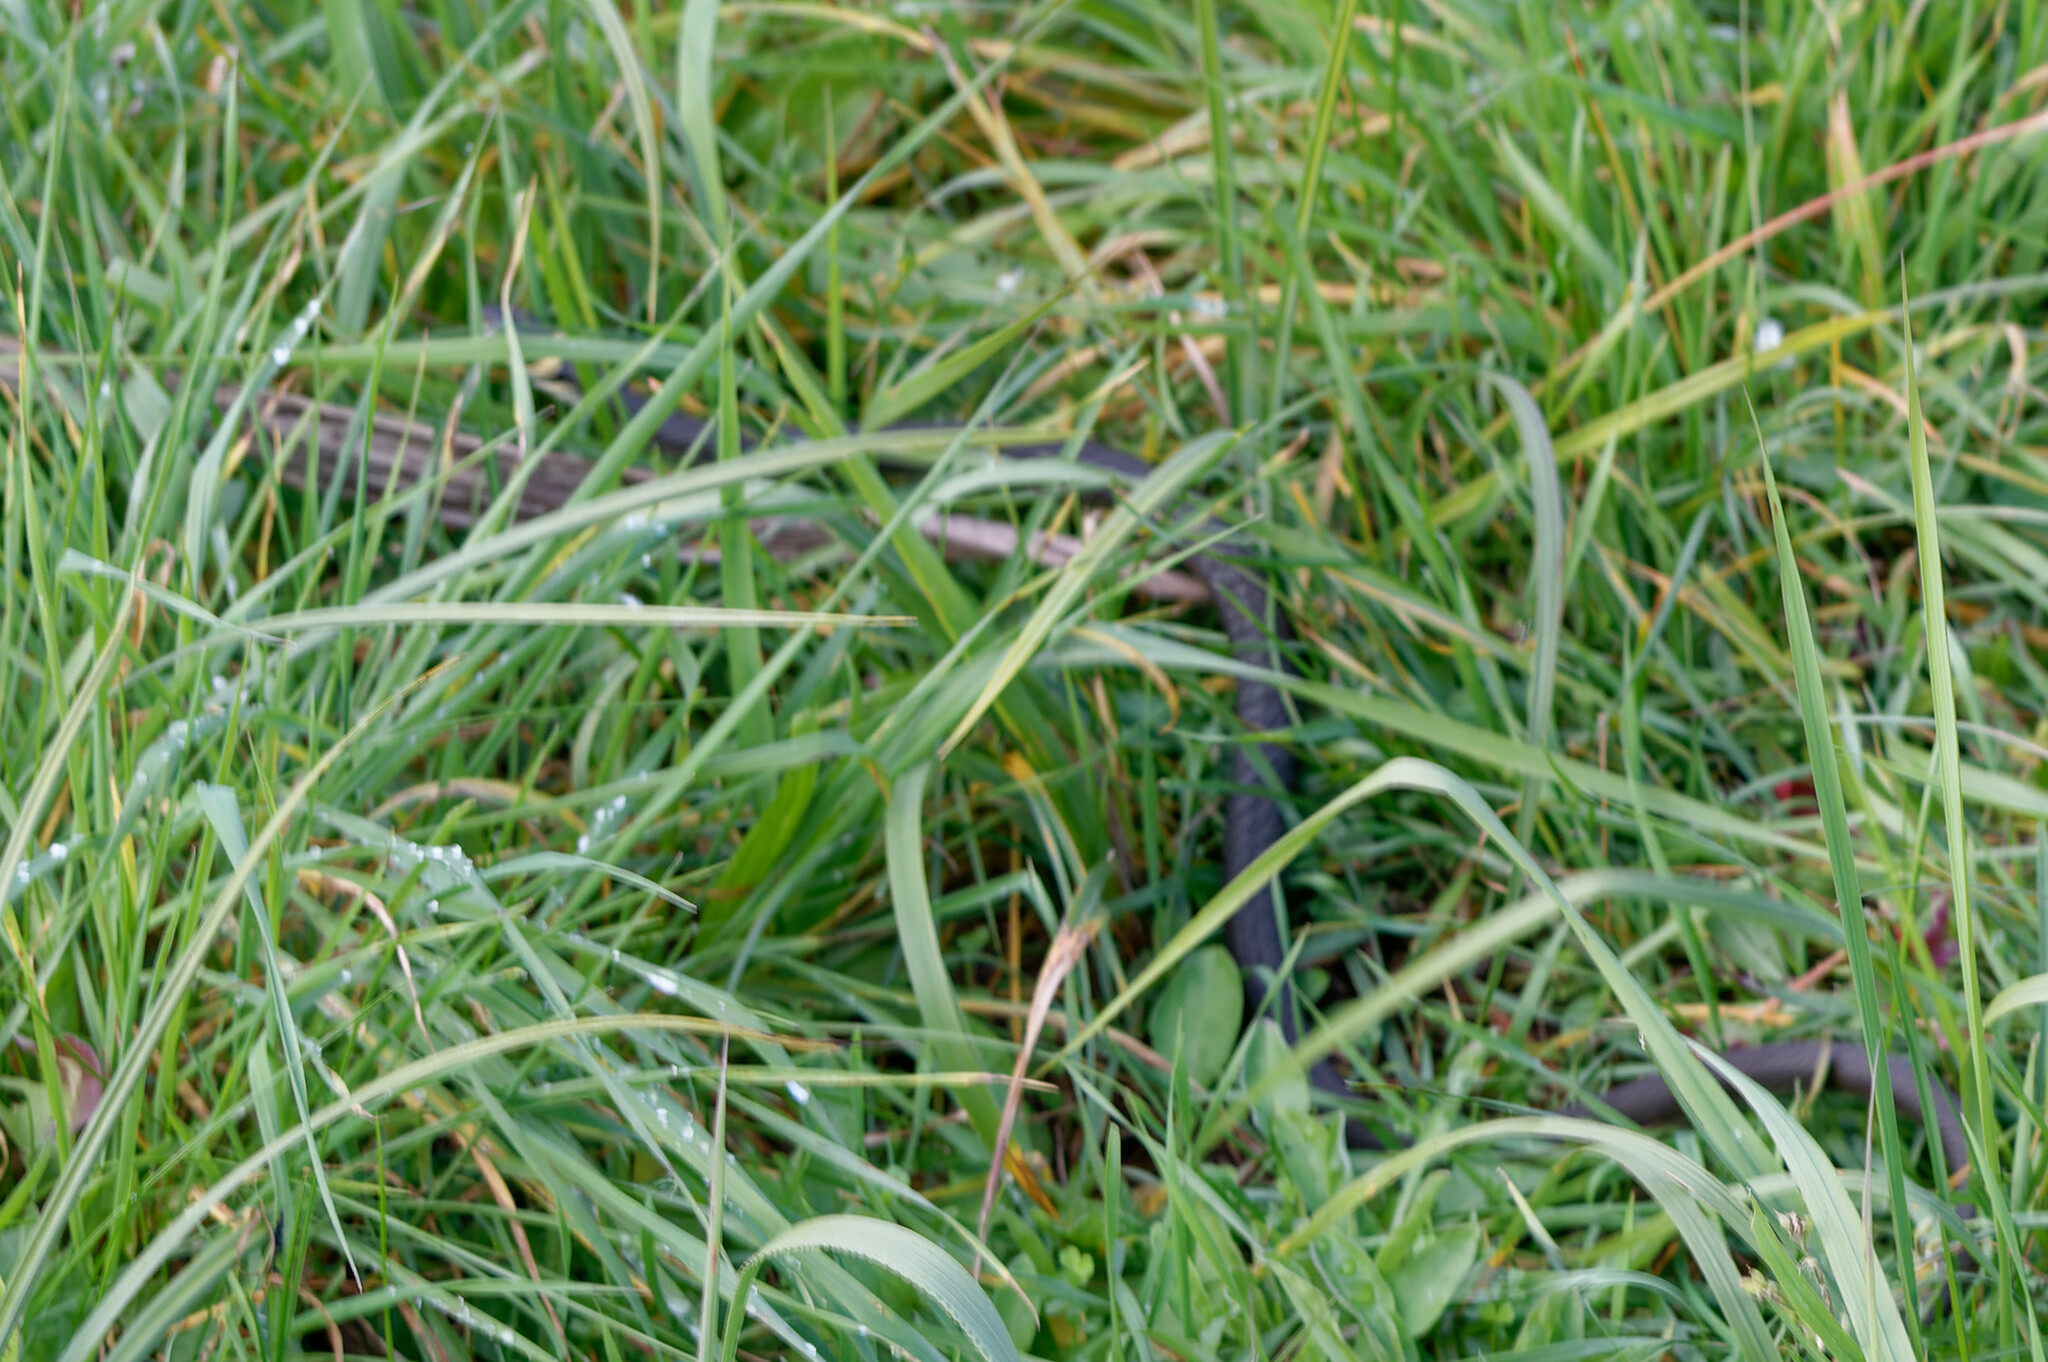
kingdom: Animalia
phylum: Chordata
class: Squamata
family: Colubridae
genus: Natrix
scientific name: Natrix natrix
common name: Grass snake
